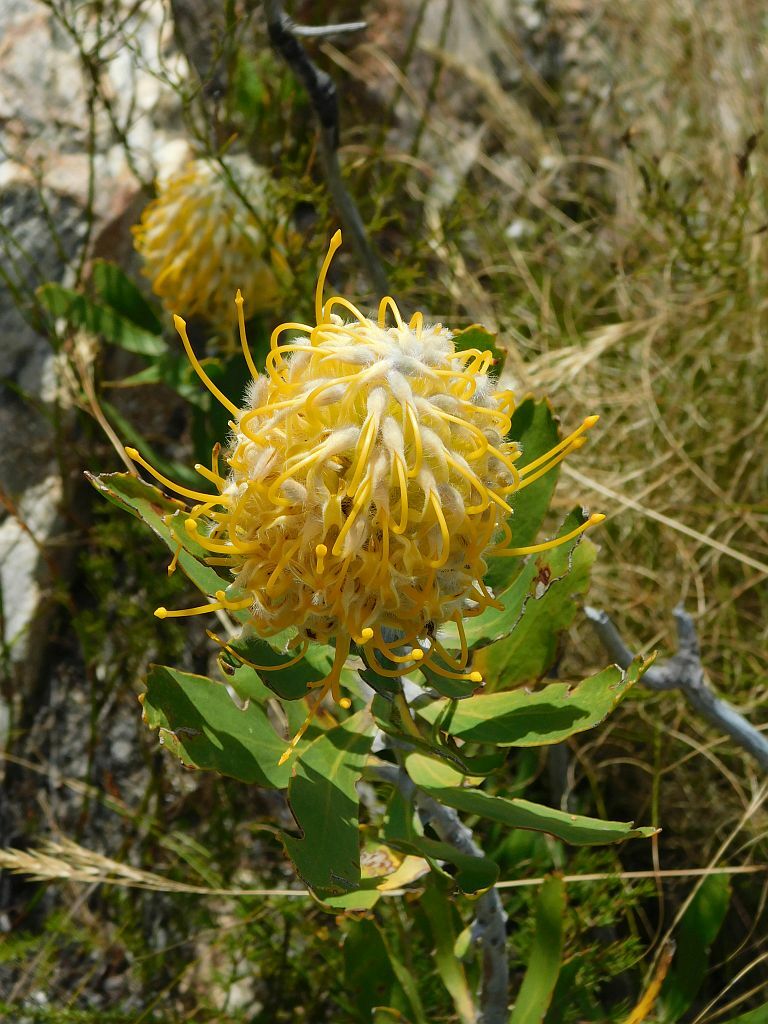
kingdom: Plantae
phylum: Tracheophyta
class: Magnoliopsida
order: Proteales
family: Proteaceae
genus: Leucospermum
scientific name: Leucospermum cuneiforme
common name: Common pincushion
